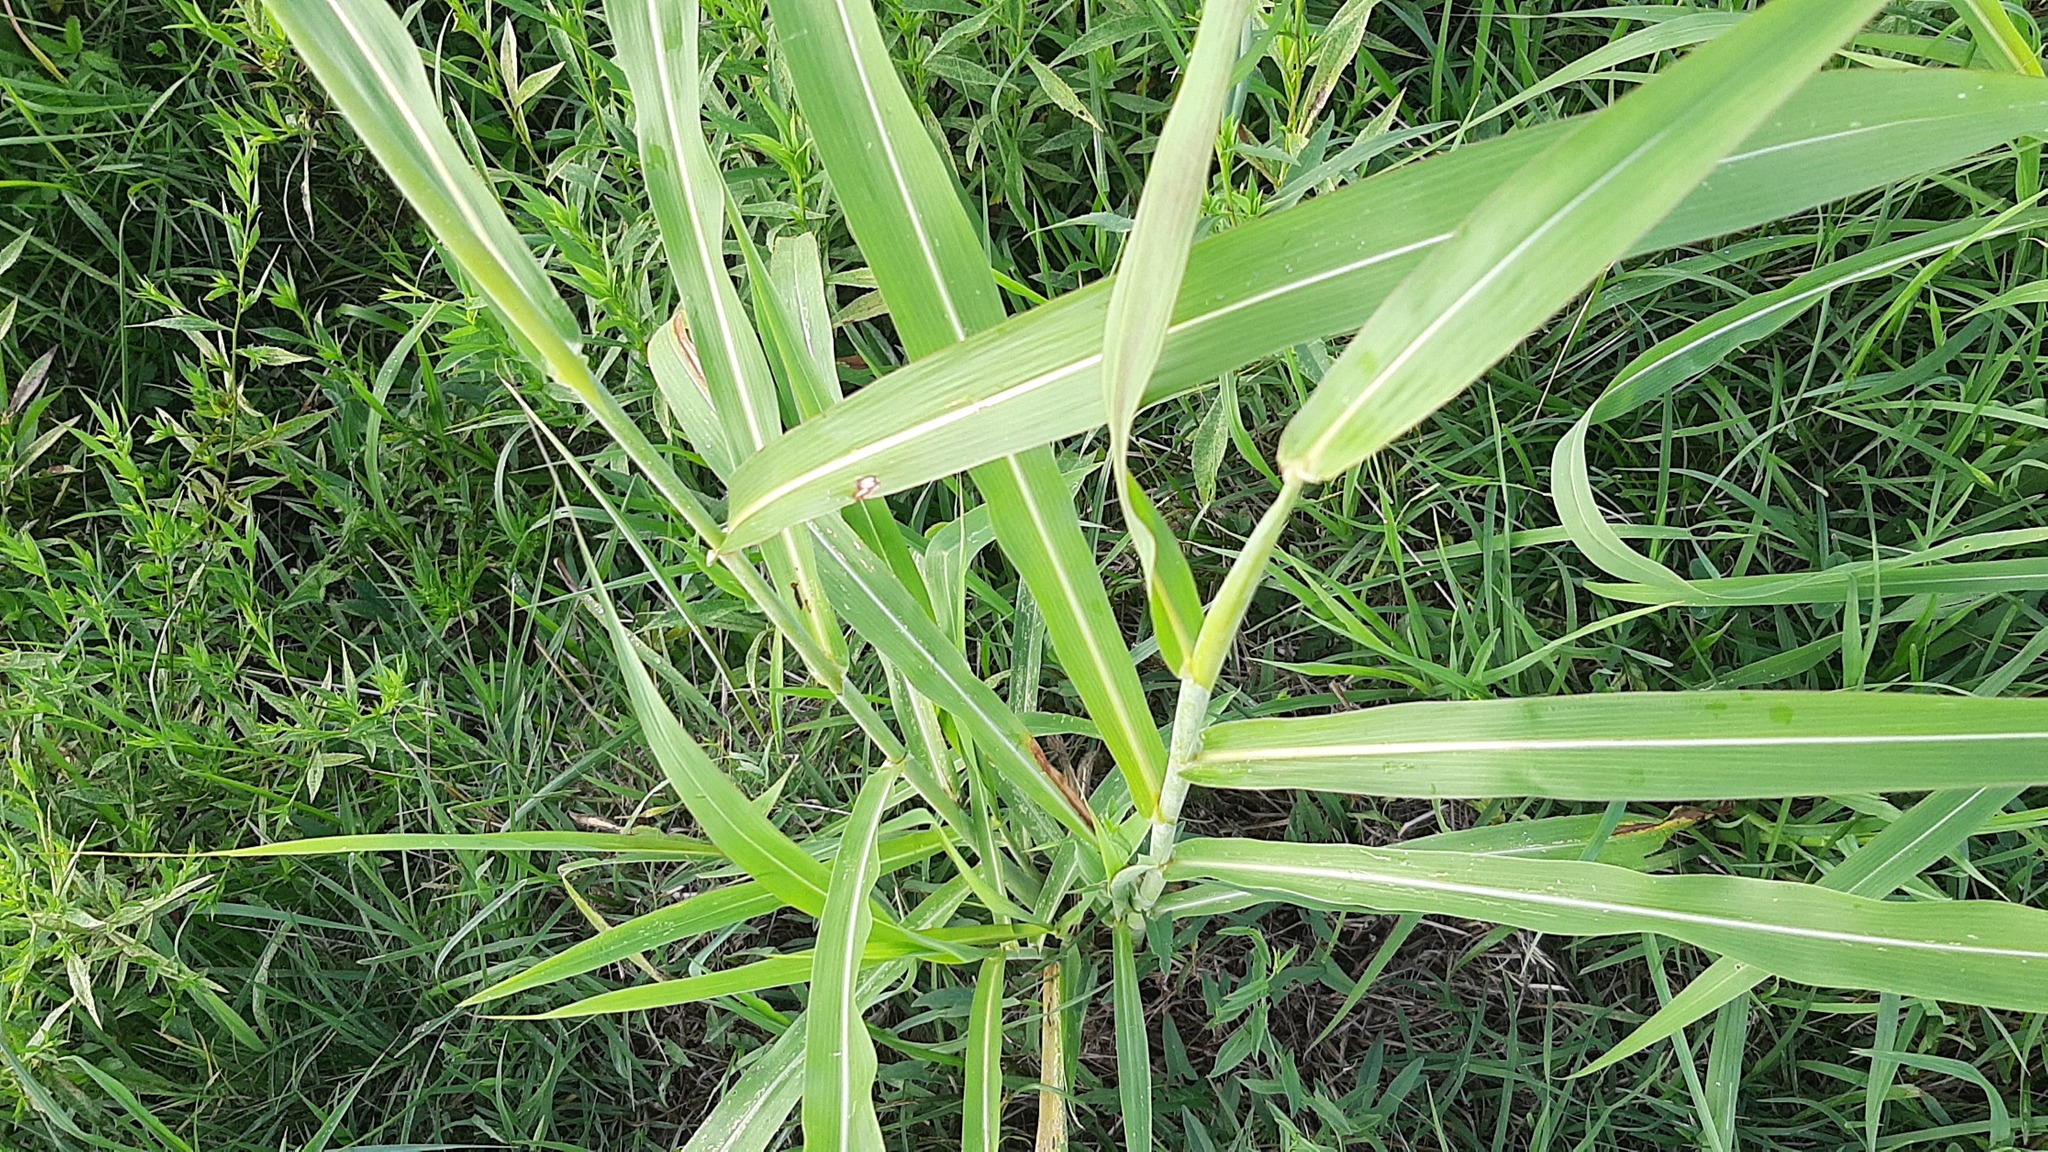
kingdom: Plantae
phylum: Tracheophyta
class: Liliopsida
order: Poales
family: Poaceae
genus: Sorghum
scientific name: Sorghum halepense
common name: Johnson-grass
